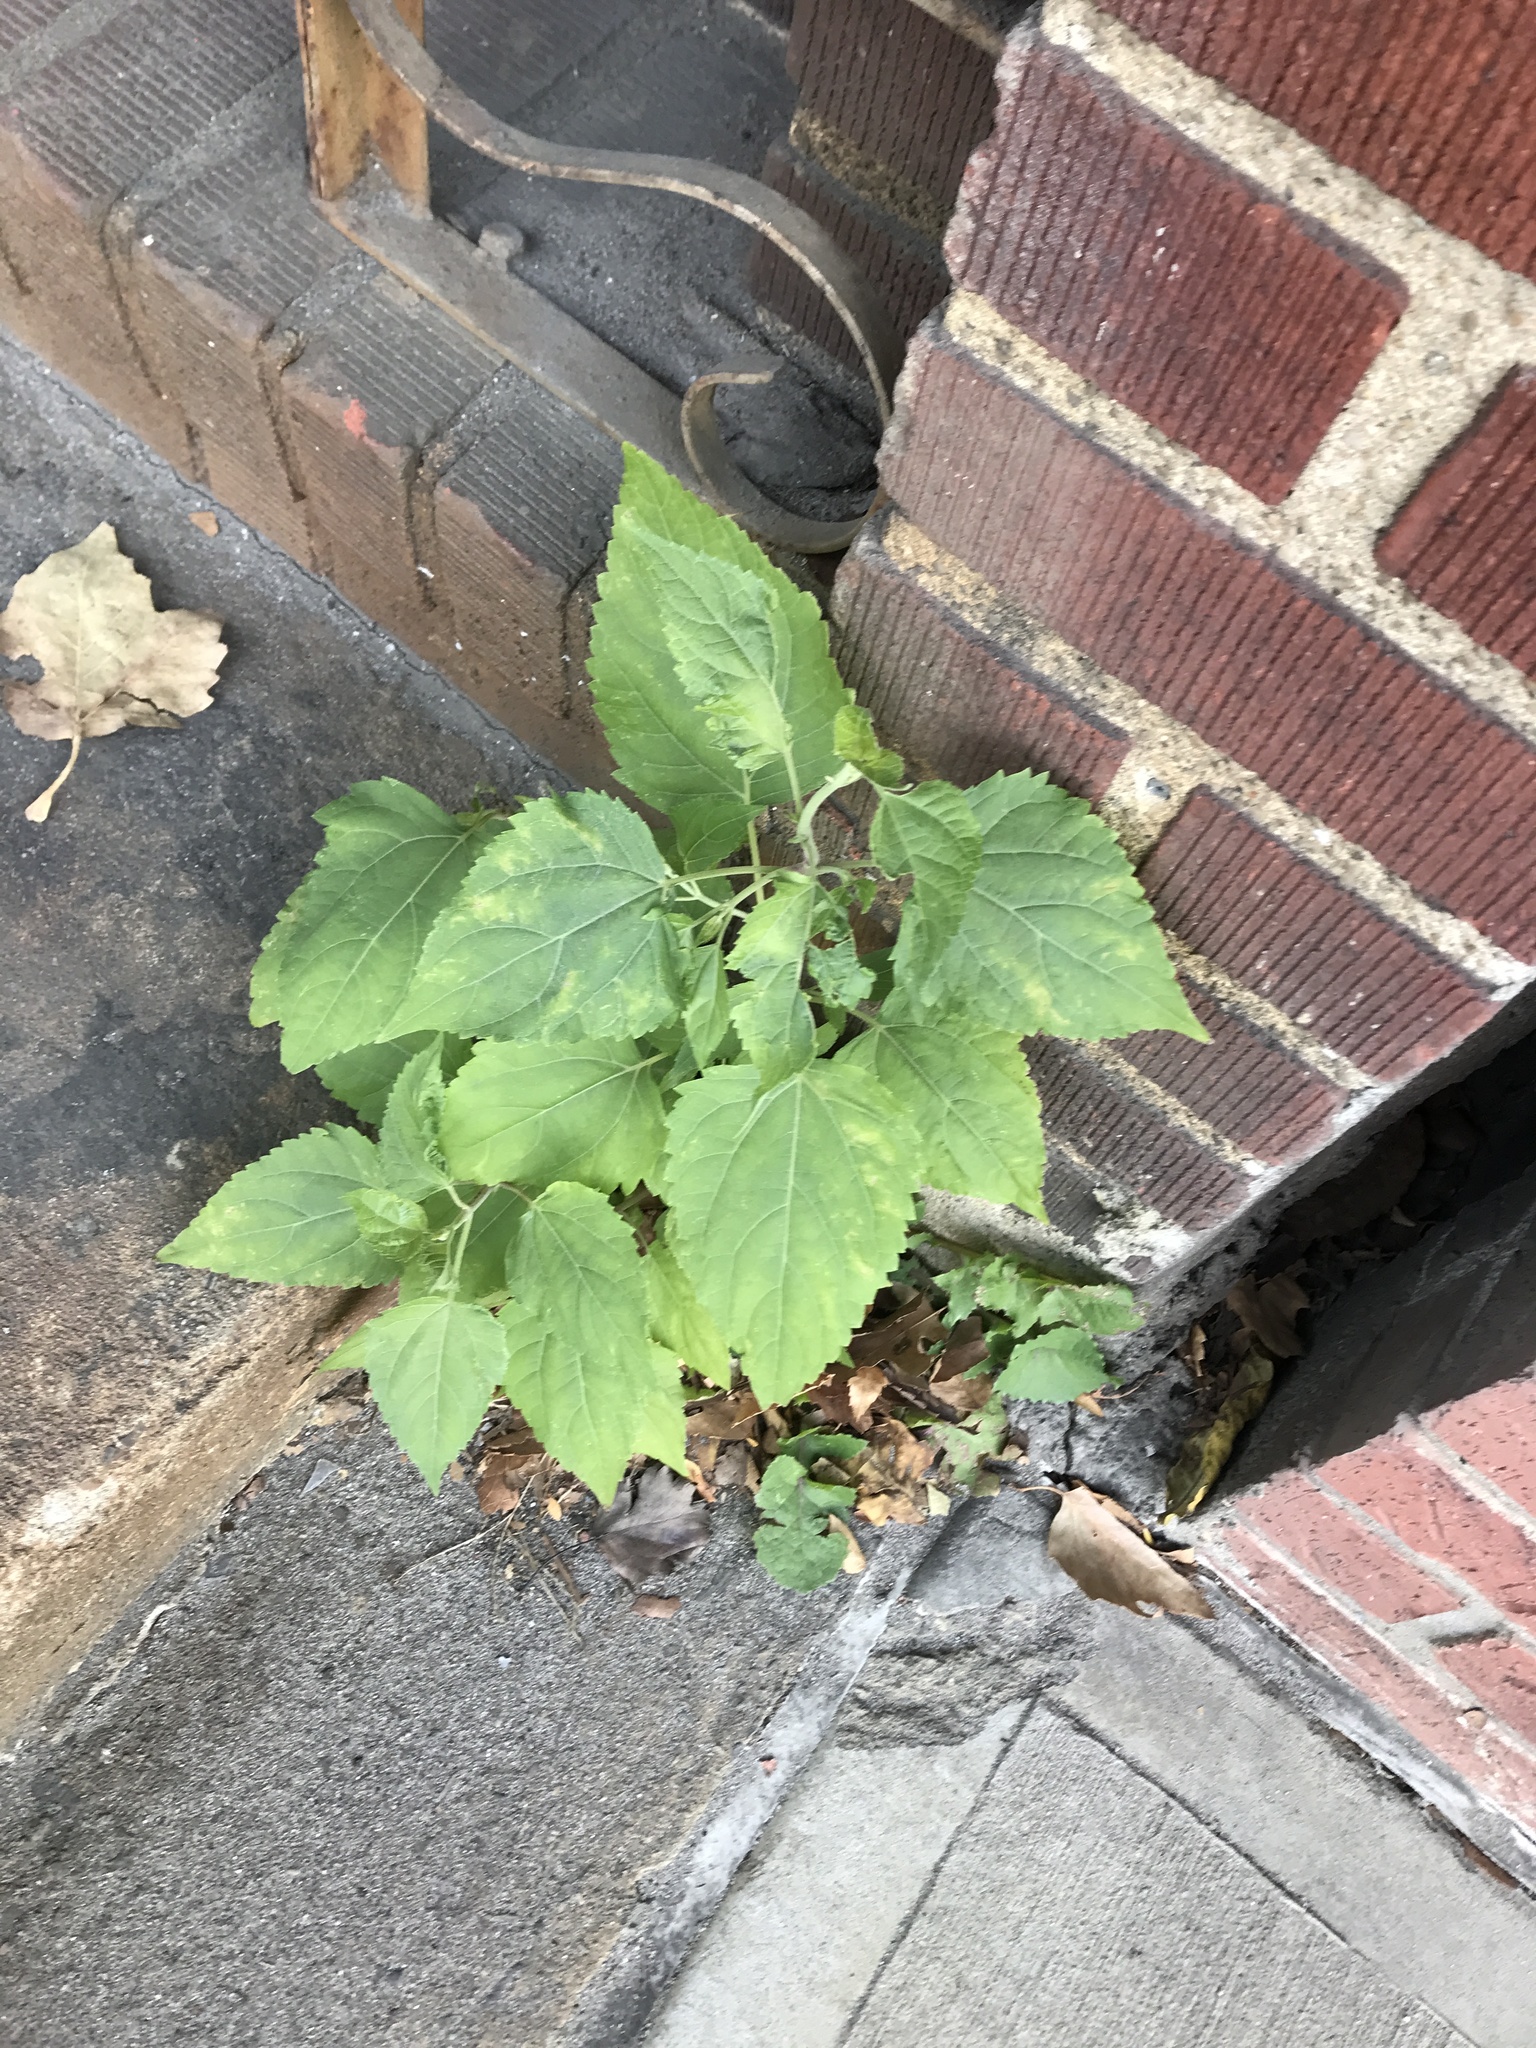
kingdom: Plantae
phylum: Tracheophyta
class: Magnoliopsida
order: Rosales
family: Moraceae
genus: Fatoua
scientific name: Fatoua villosa
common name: Hairy crabweed
